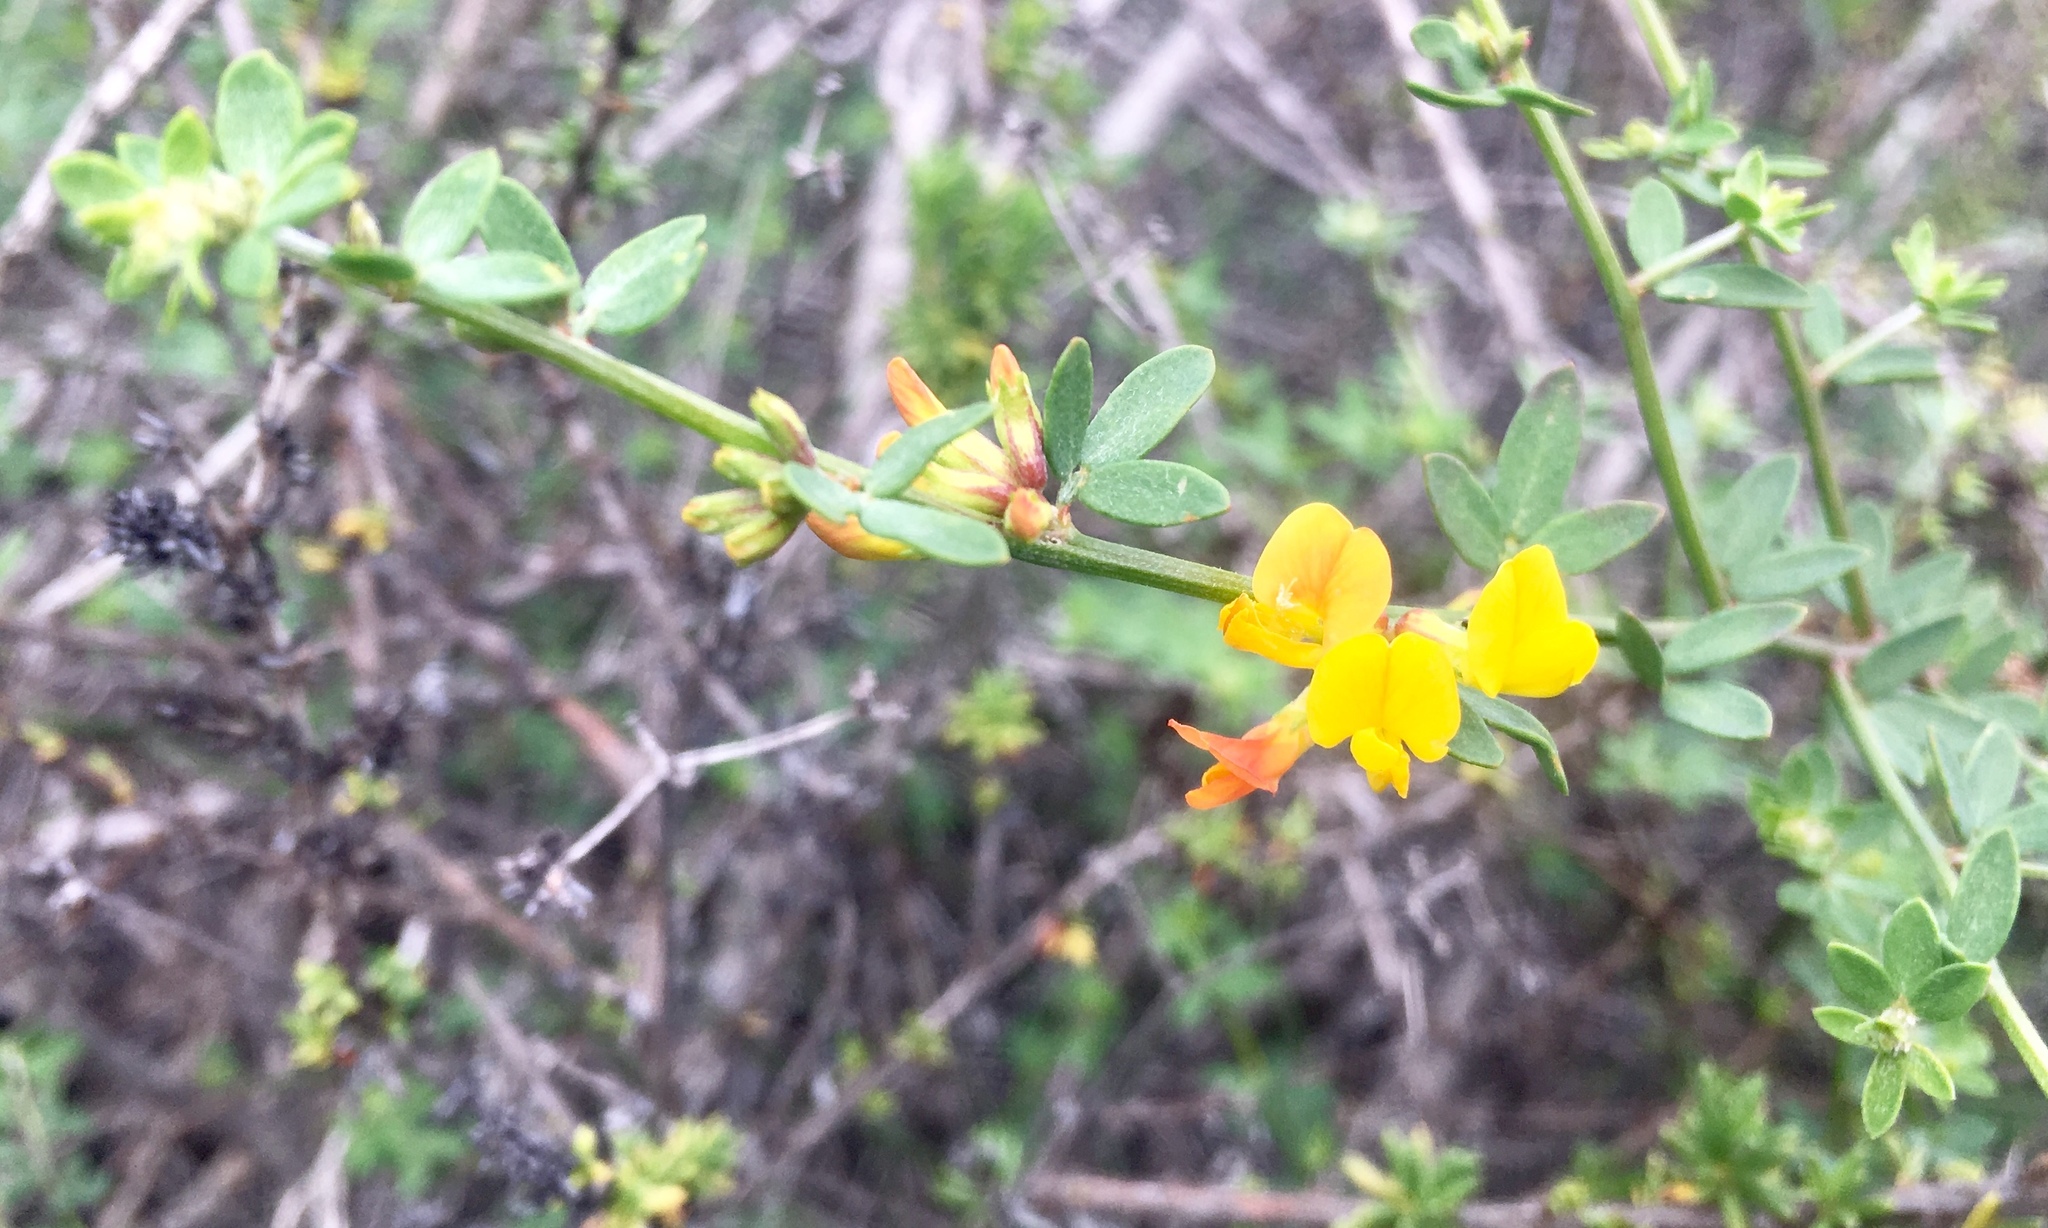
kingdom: Plantae
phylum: Tracheophyta
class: Magnoliopsida
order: Fabales
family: Fabaceae
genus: Acmispon
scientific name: Acmispon glaber
